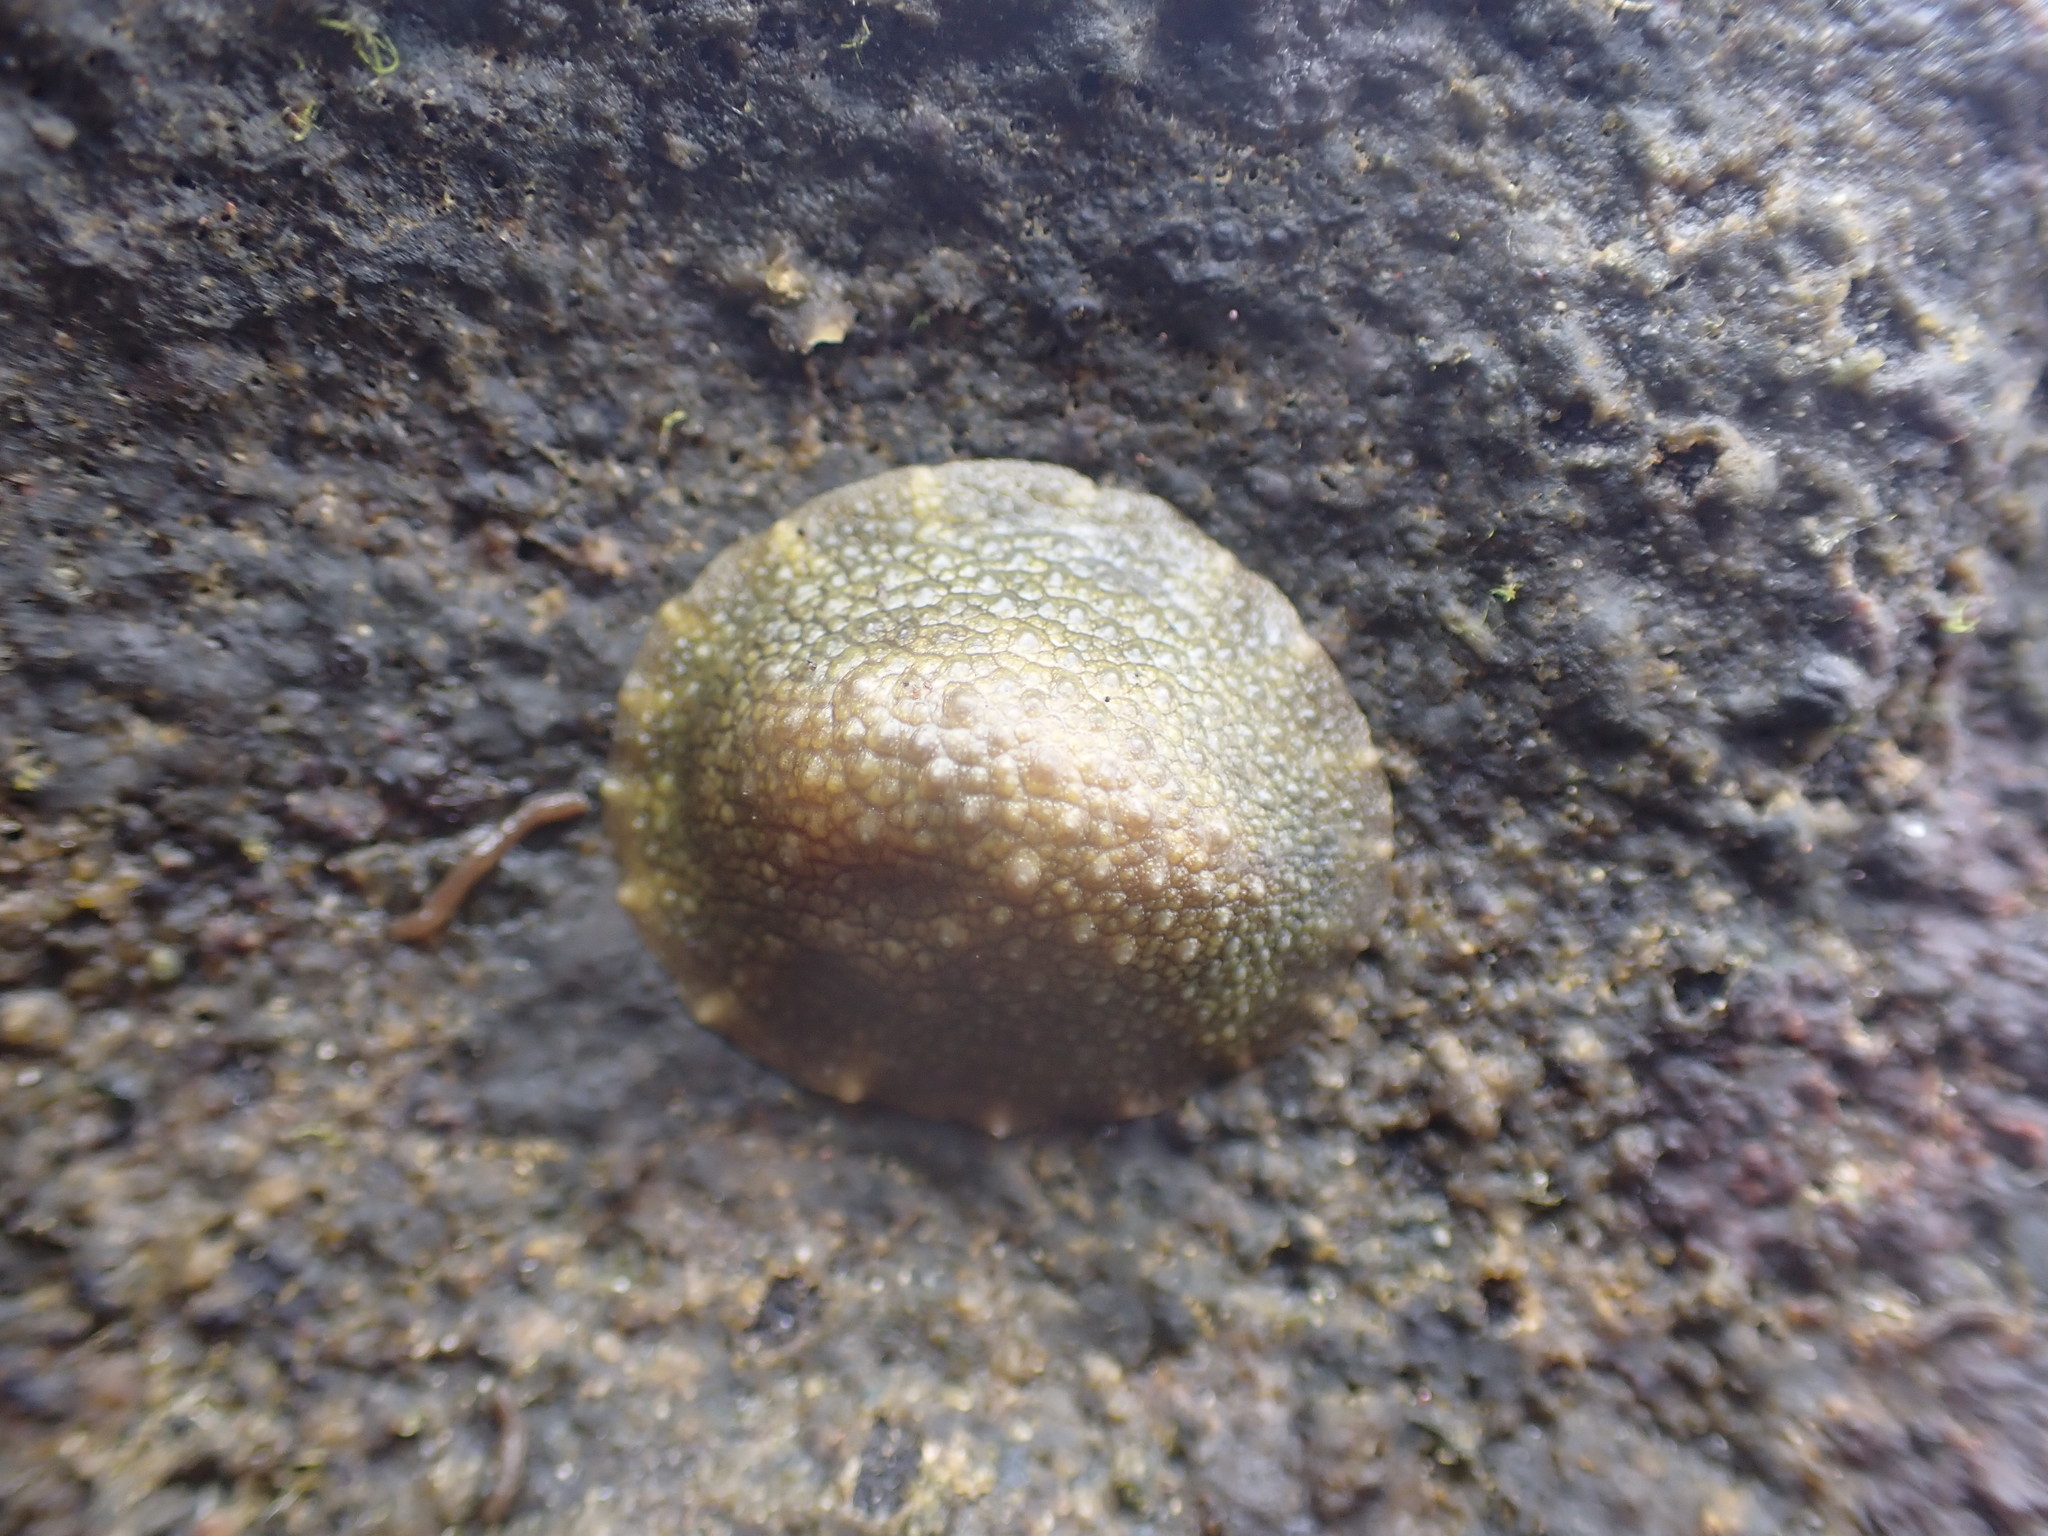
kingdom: Animalia
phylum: Mollusca
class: Gastropoda
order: Systellommatophora
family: Onchidiidae
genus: Onchidella
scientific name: Onchidella nigricans
